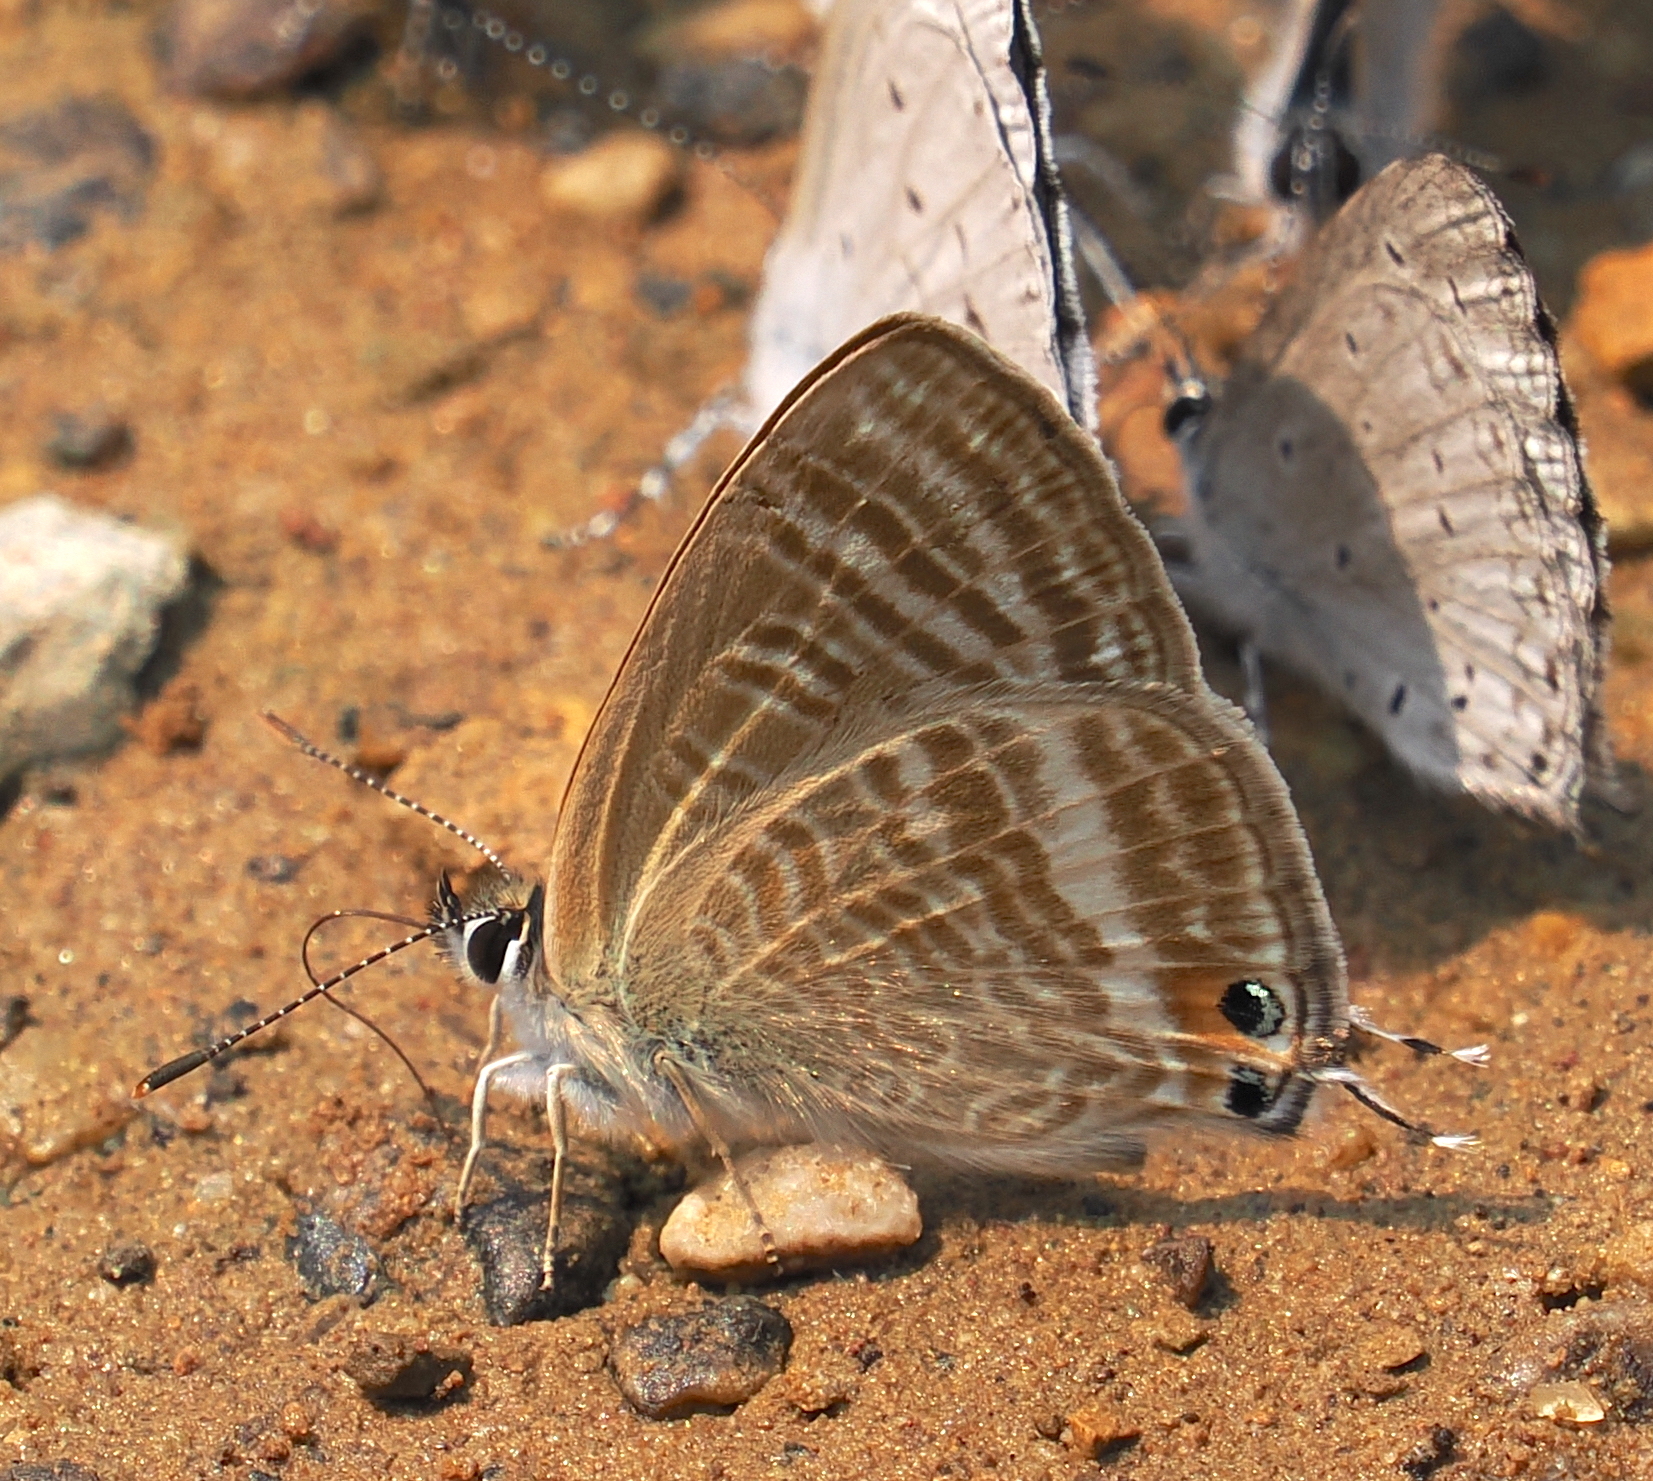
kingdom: Animalia
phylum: Arthropoda
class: Insecta
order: Lepidoptera
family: Lycaenidae
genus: Lampides
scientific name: Lampides boeticus
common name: Long-tailed blue
